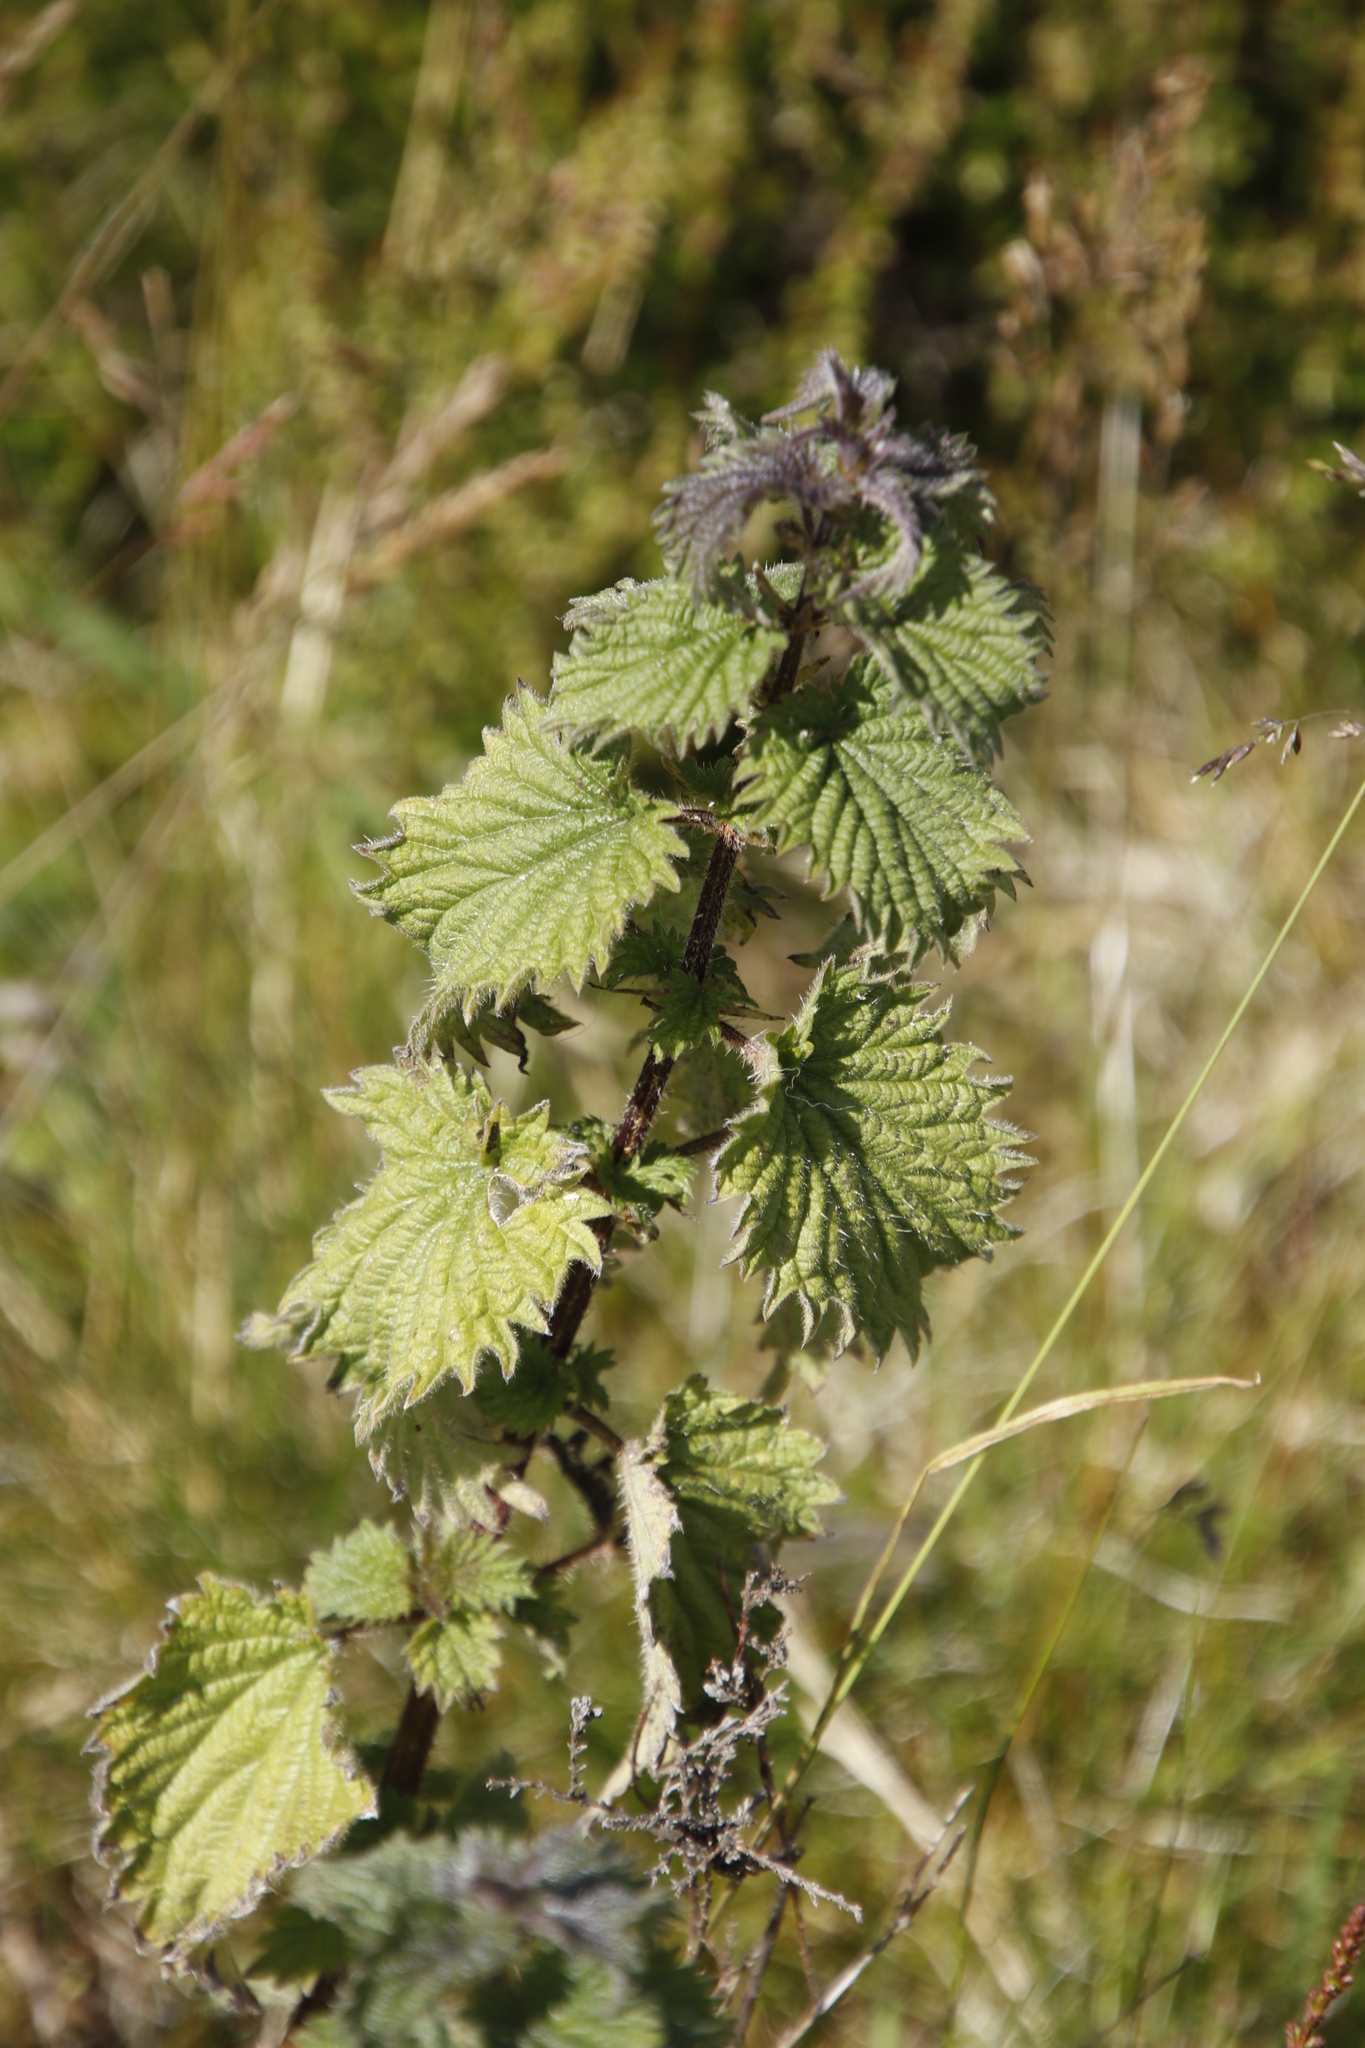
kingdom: Plantae
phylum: Tracheophyta
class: Magnoliopsida
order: Rosales
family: Urticaceae
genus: Urtica
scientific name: Urtica dioica
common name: Common nettle
